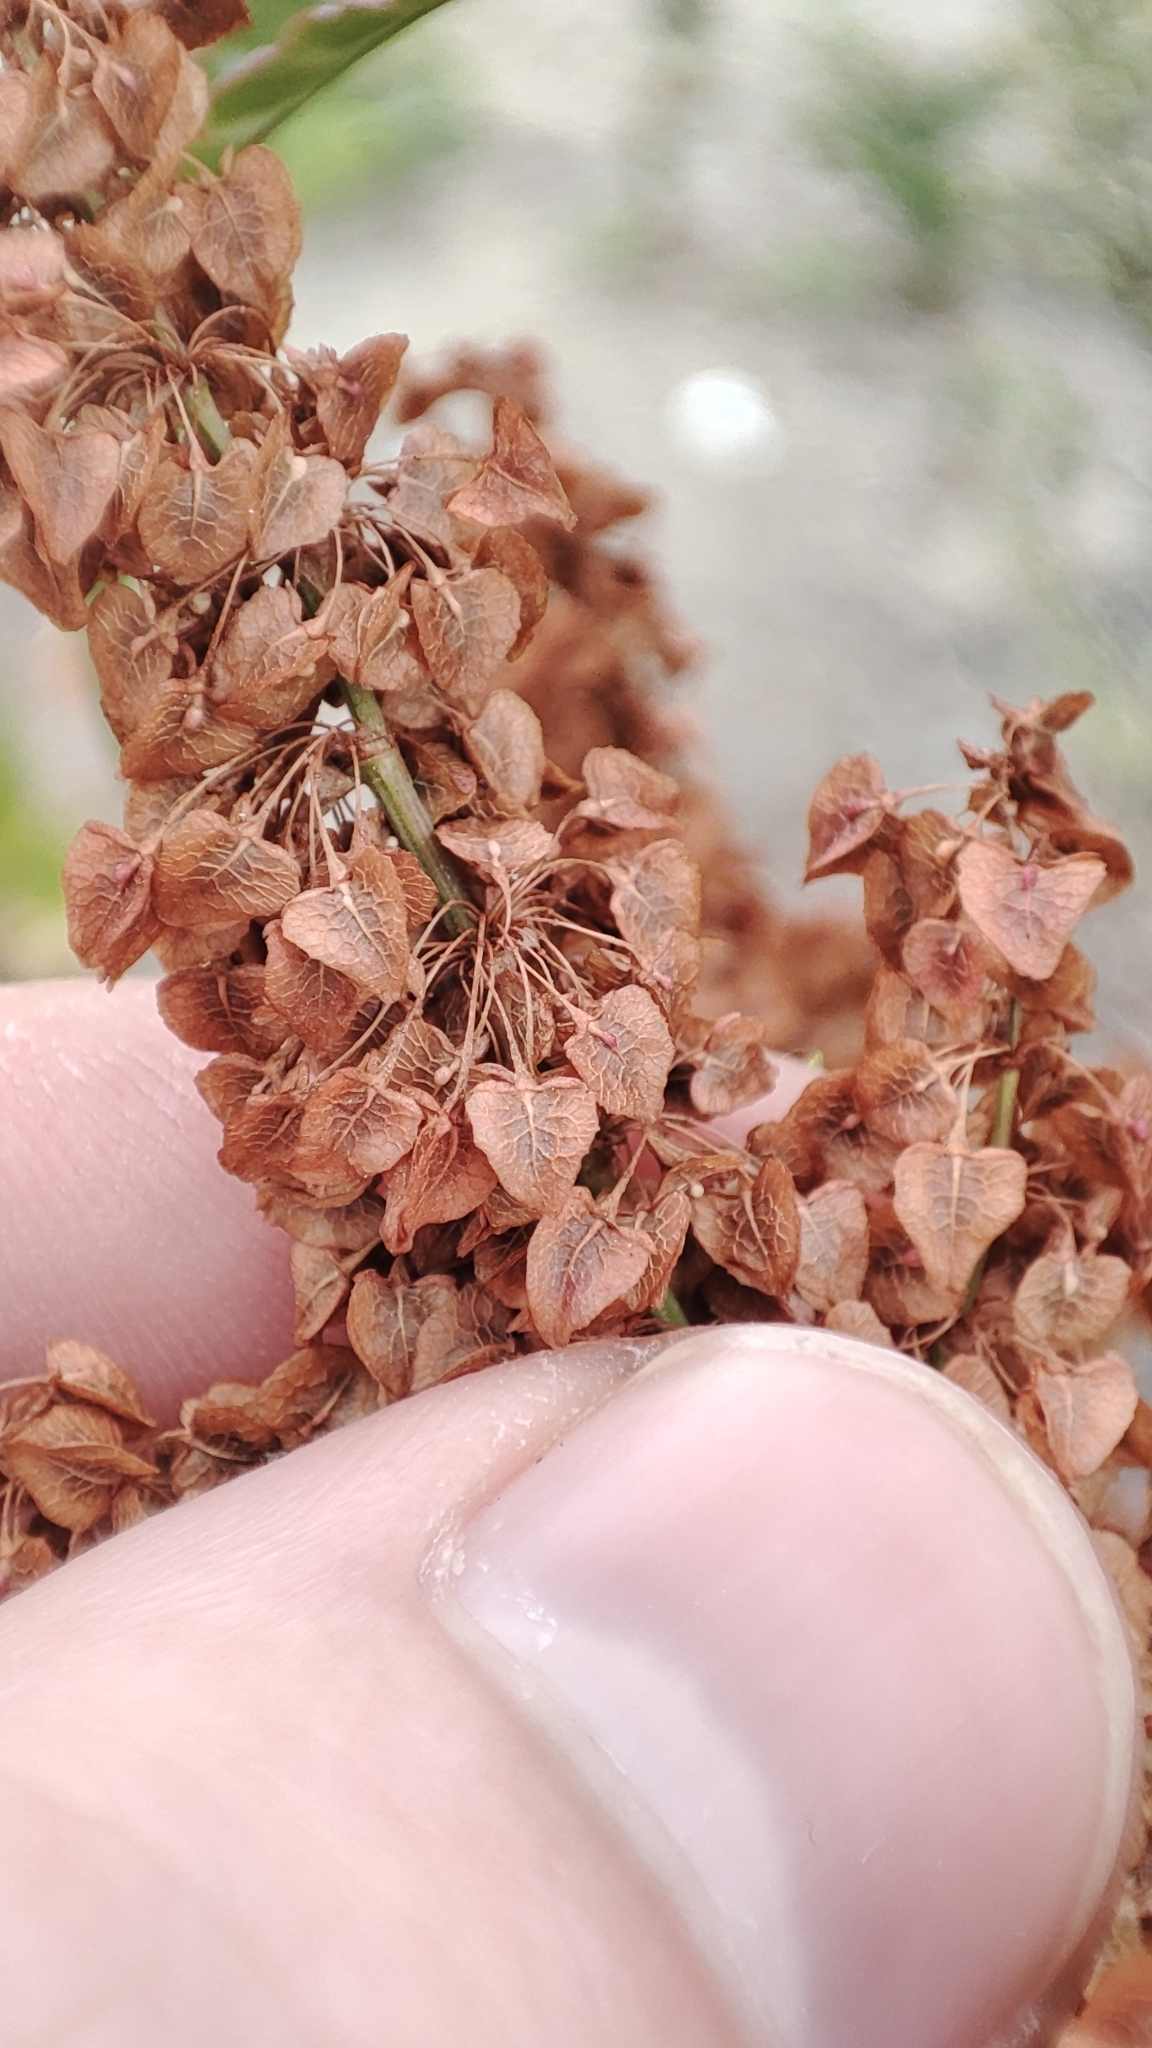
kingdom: Plantae
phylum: Tracheophyta
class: Magnoliopsida
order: Caryophyllales
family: Polygonaceae
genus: Rumex
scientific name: Rumex pseudonatronatus
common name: Field dock
